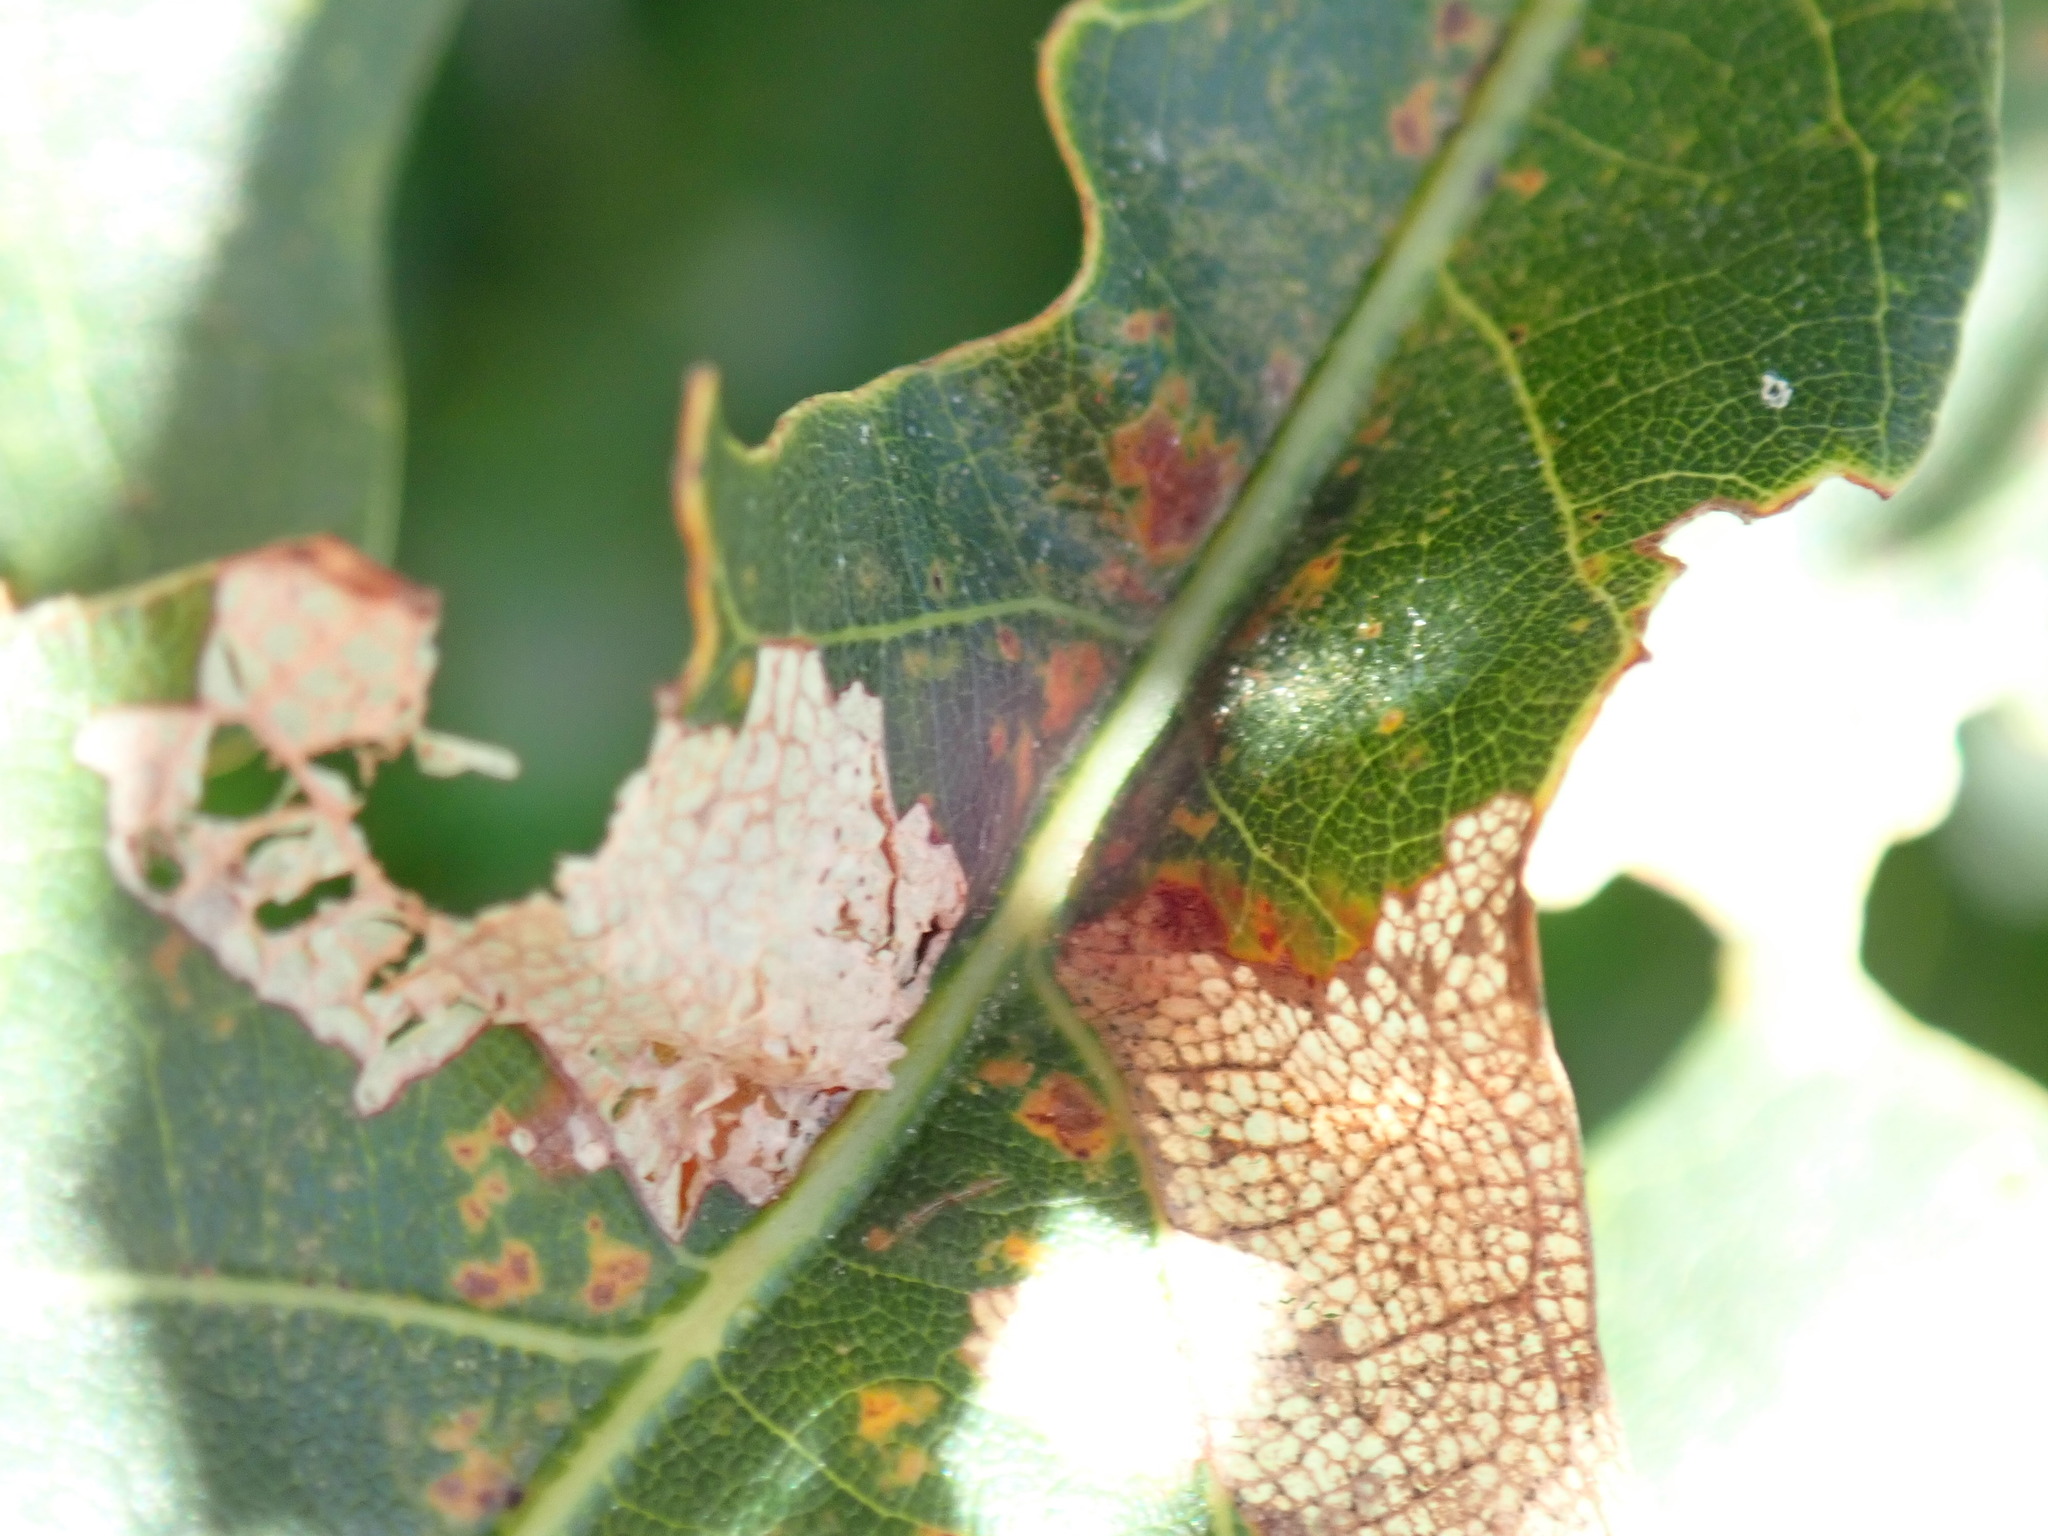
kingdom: Animalia
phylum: Arthropoda
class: Insecta
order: Hymenoptera
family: Cynipidae
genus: Andricus
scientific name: Andricus
